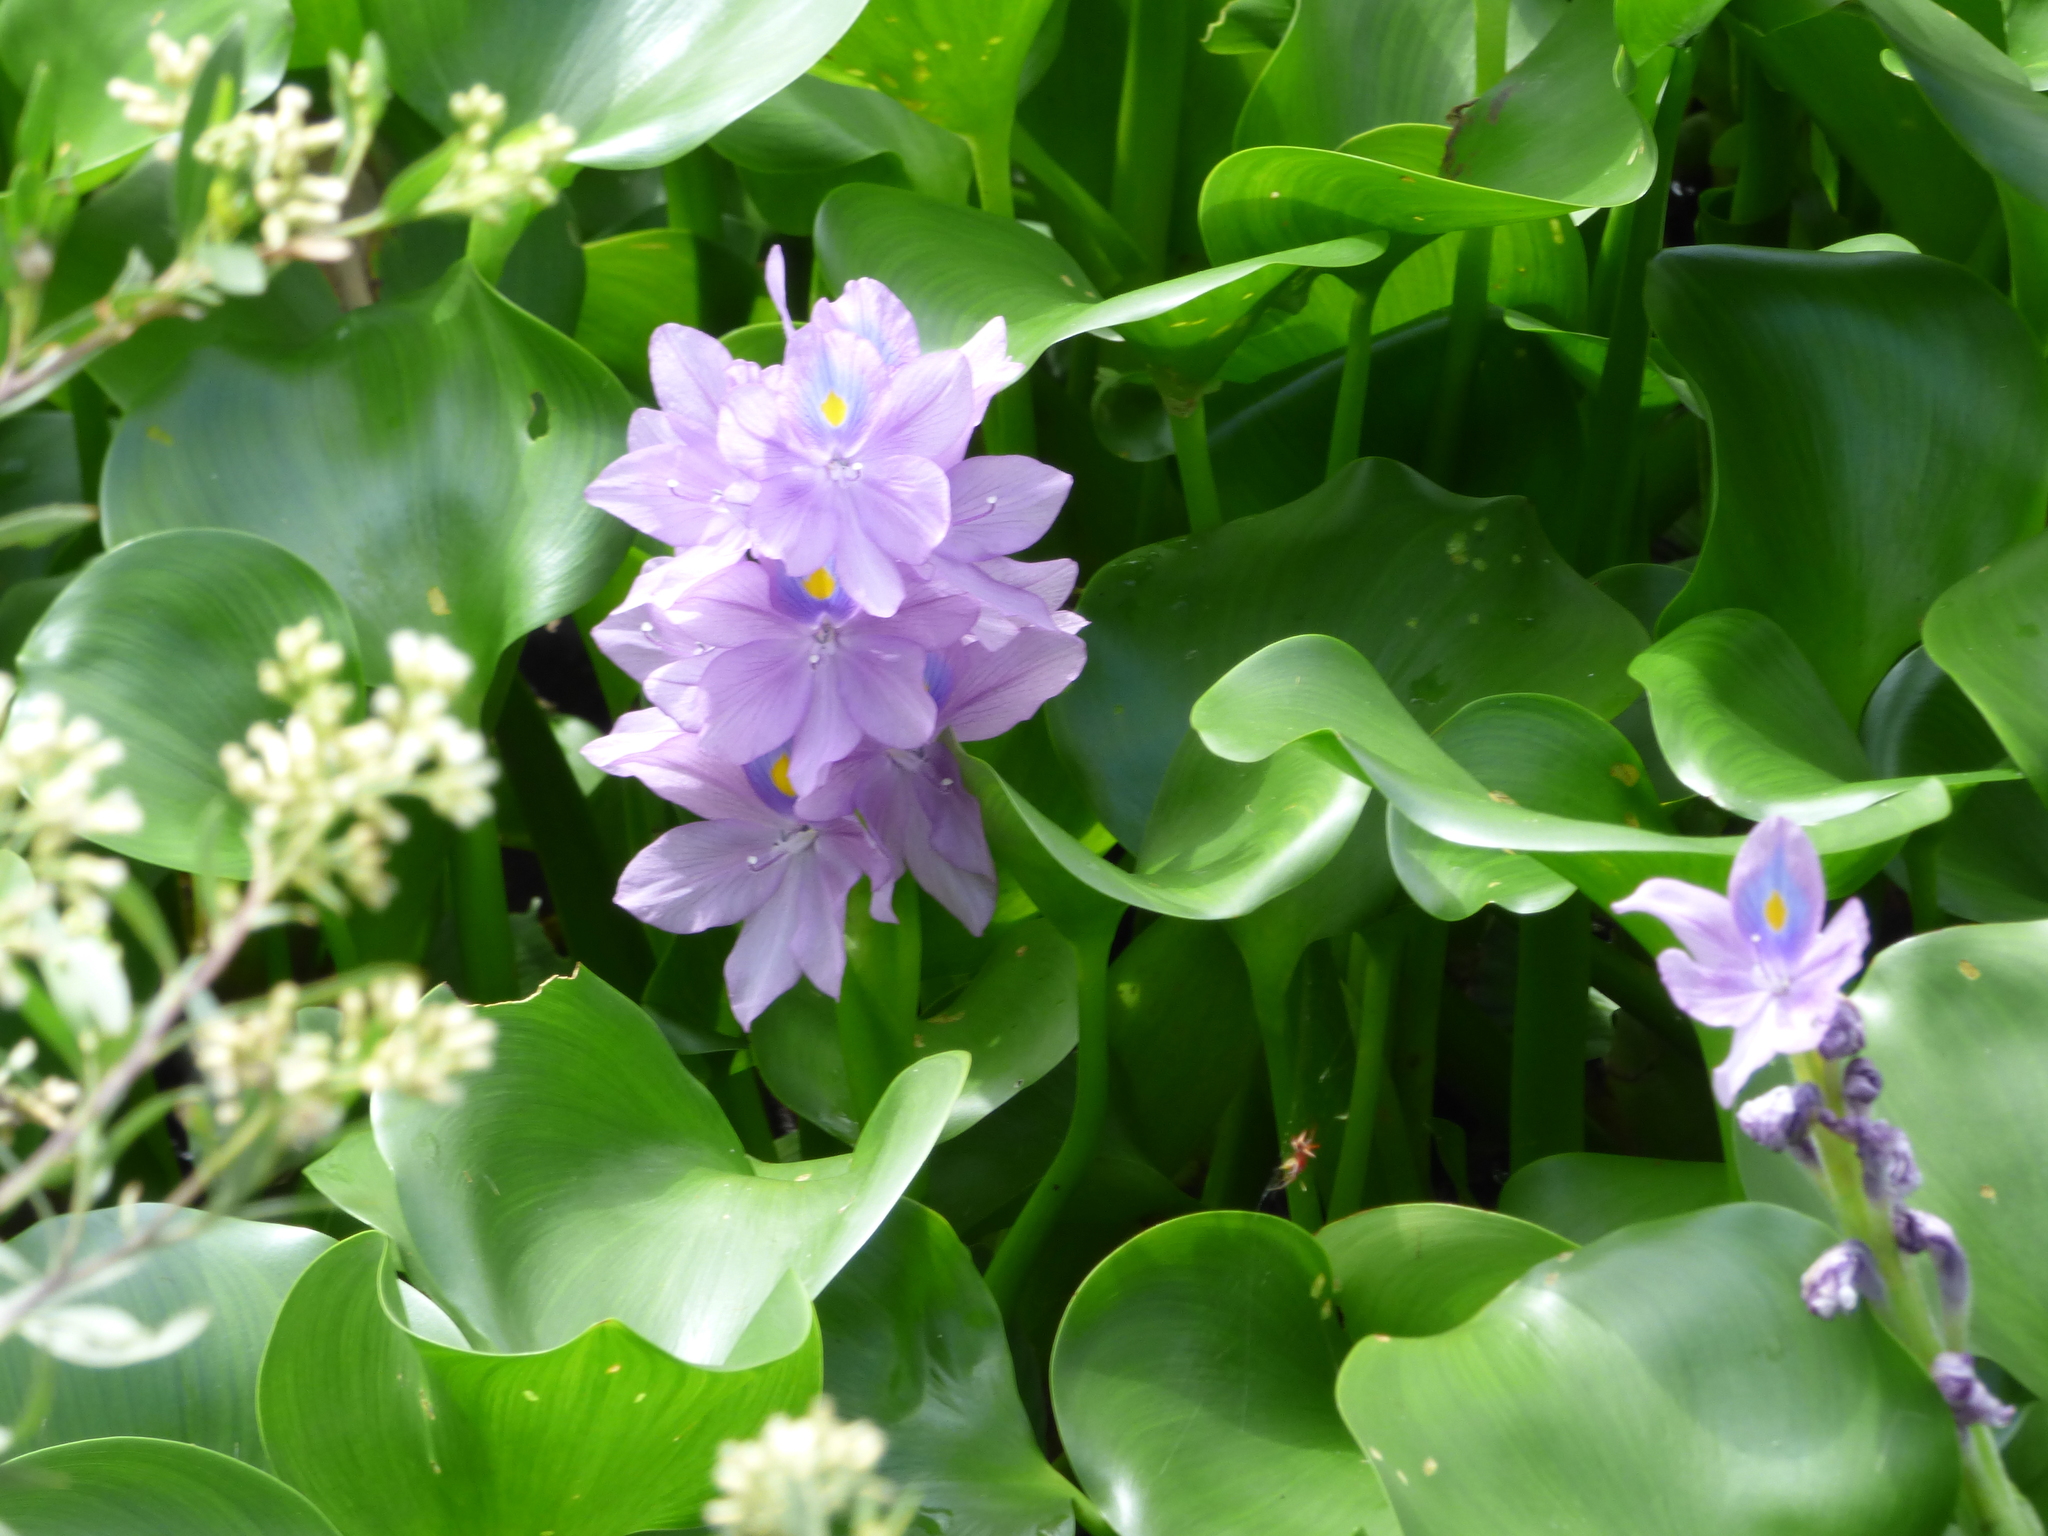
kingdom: Plantae
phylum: Tracheophyta
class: Liliopsida
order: Commelinales
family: Pontederiaceae
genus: Pontederia
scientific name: Pontederia crassipes
